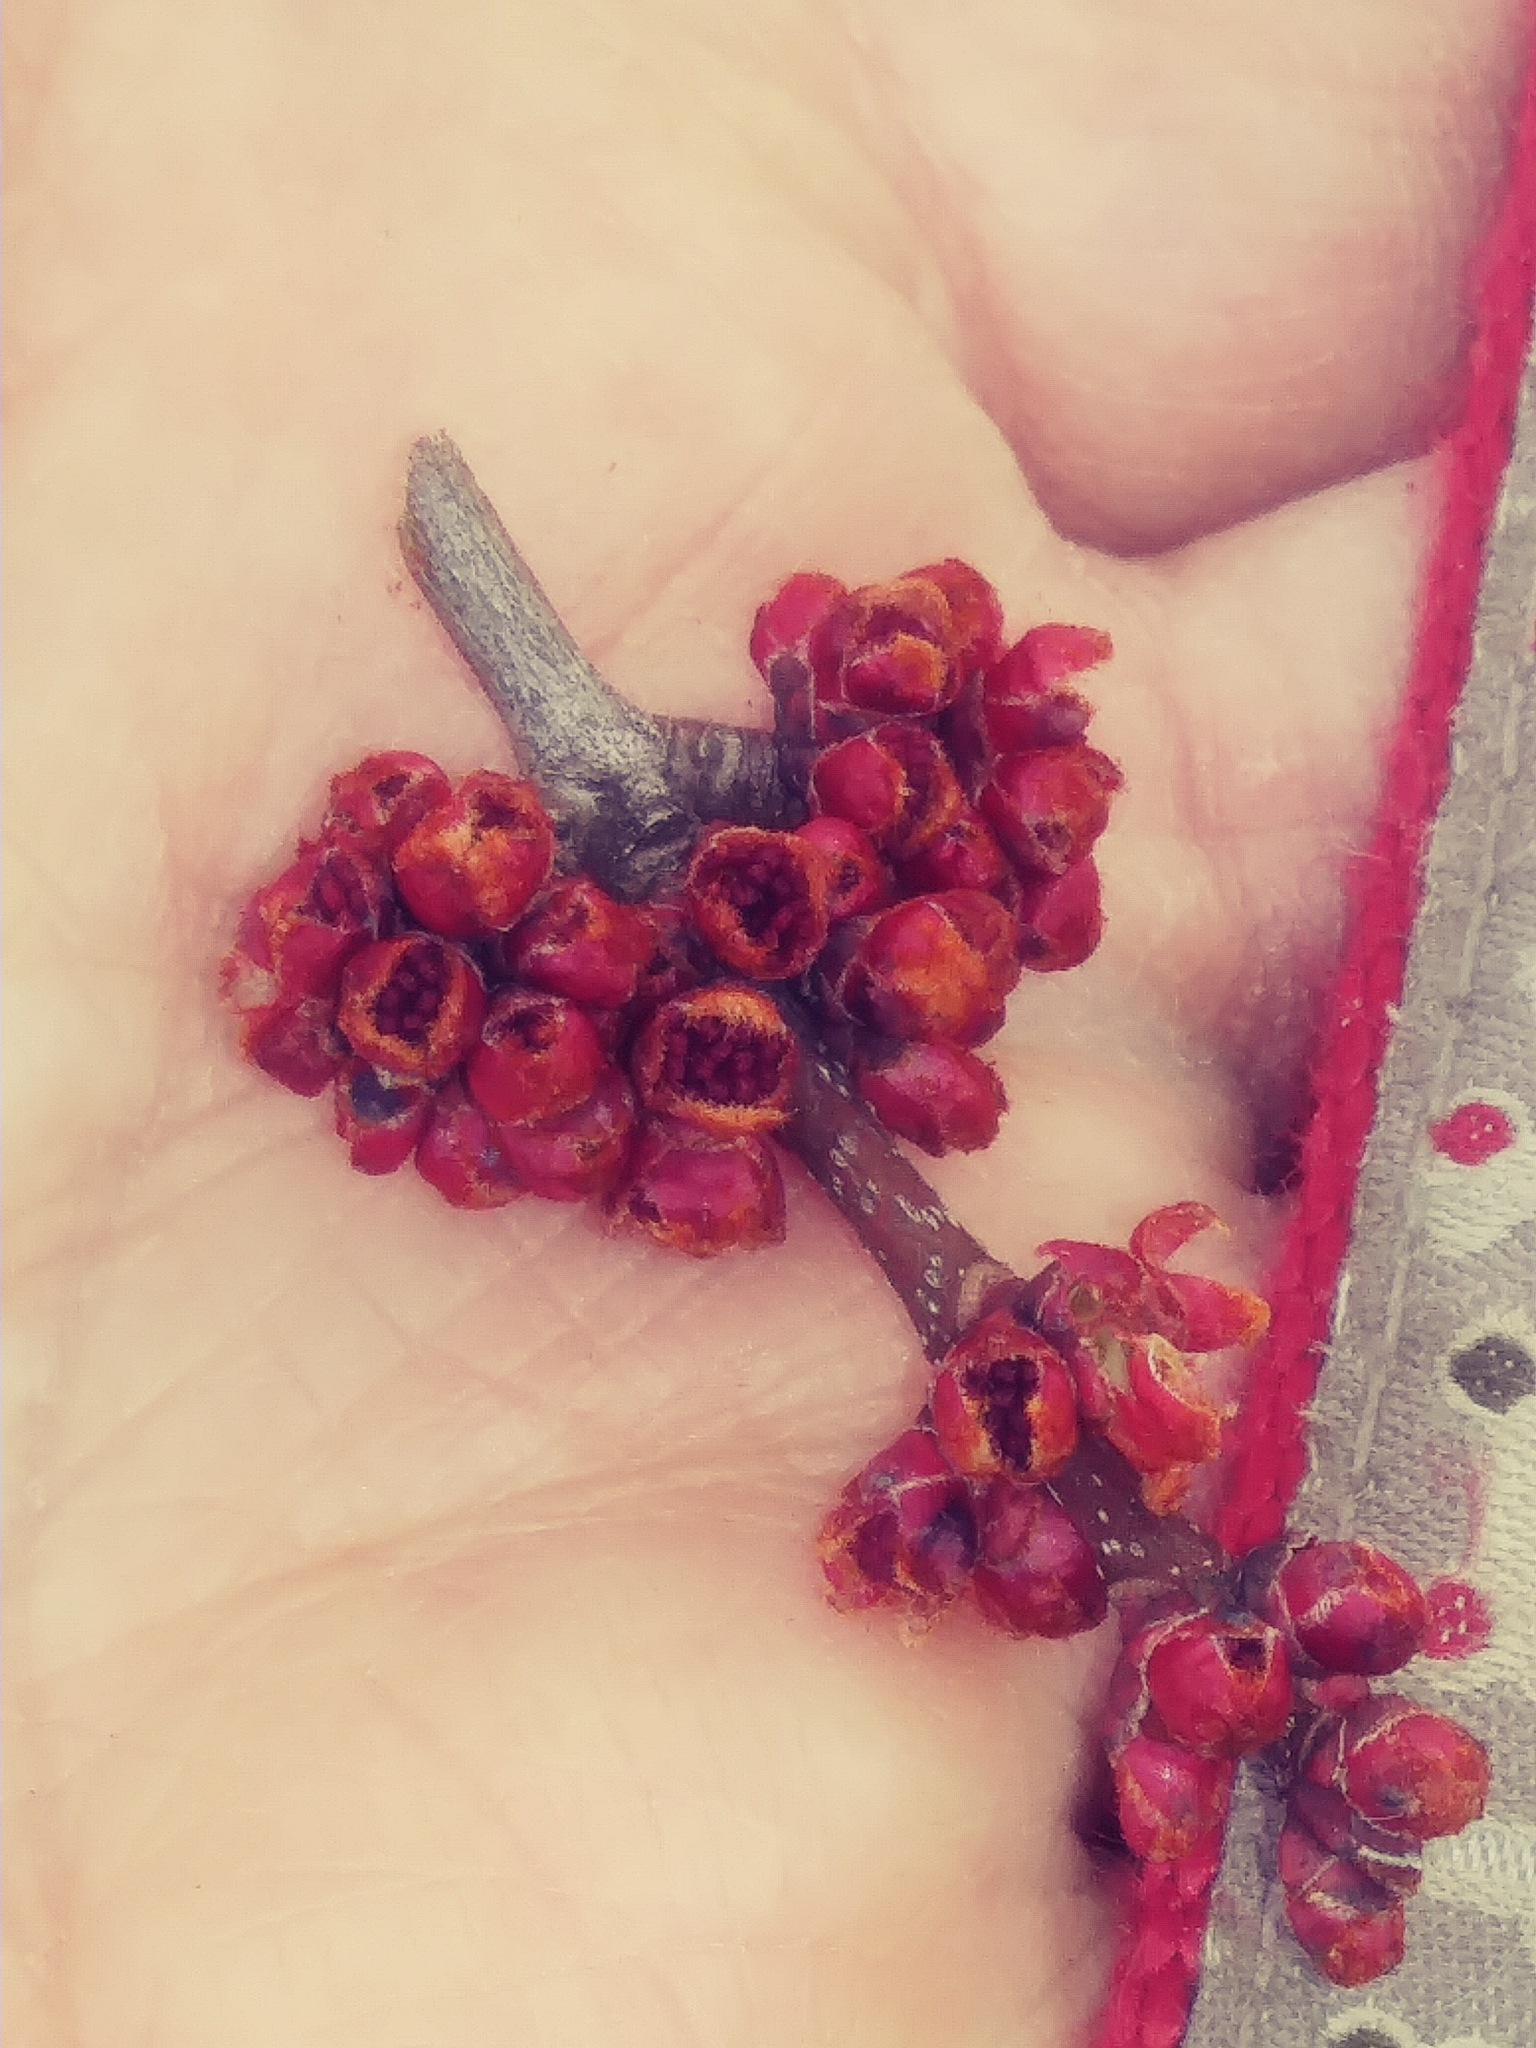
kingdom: Plantae
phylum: Tracheophyta
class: Magnoliopsida
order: Sapindales
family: Sapindaceae
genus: Acer
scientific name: Acer rubrum
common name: Red maple
